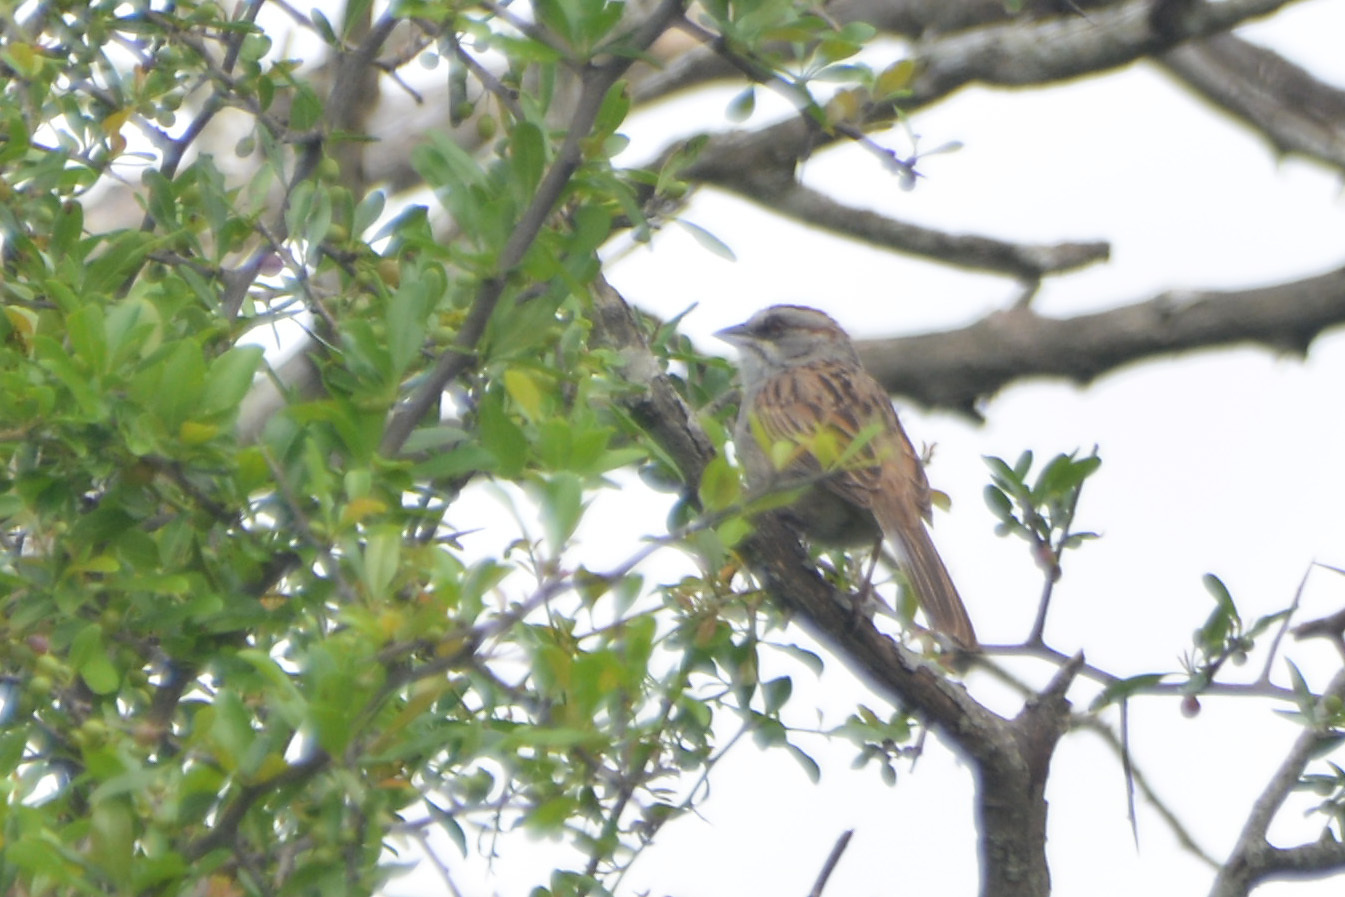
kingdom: Animalia
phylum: Chordata
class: Aves
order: Passeriformes
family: Passerellidae
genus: Rhynchospiza
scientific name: Rhynchospiza dabbenei
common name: Yungas sparrow
